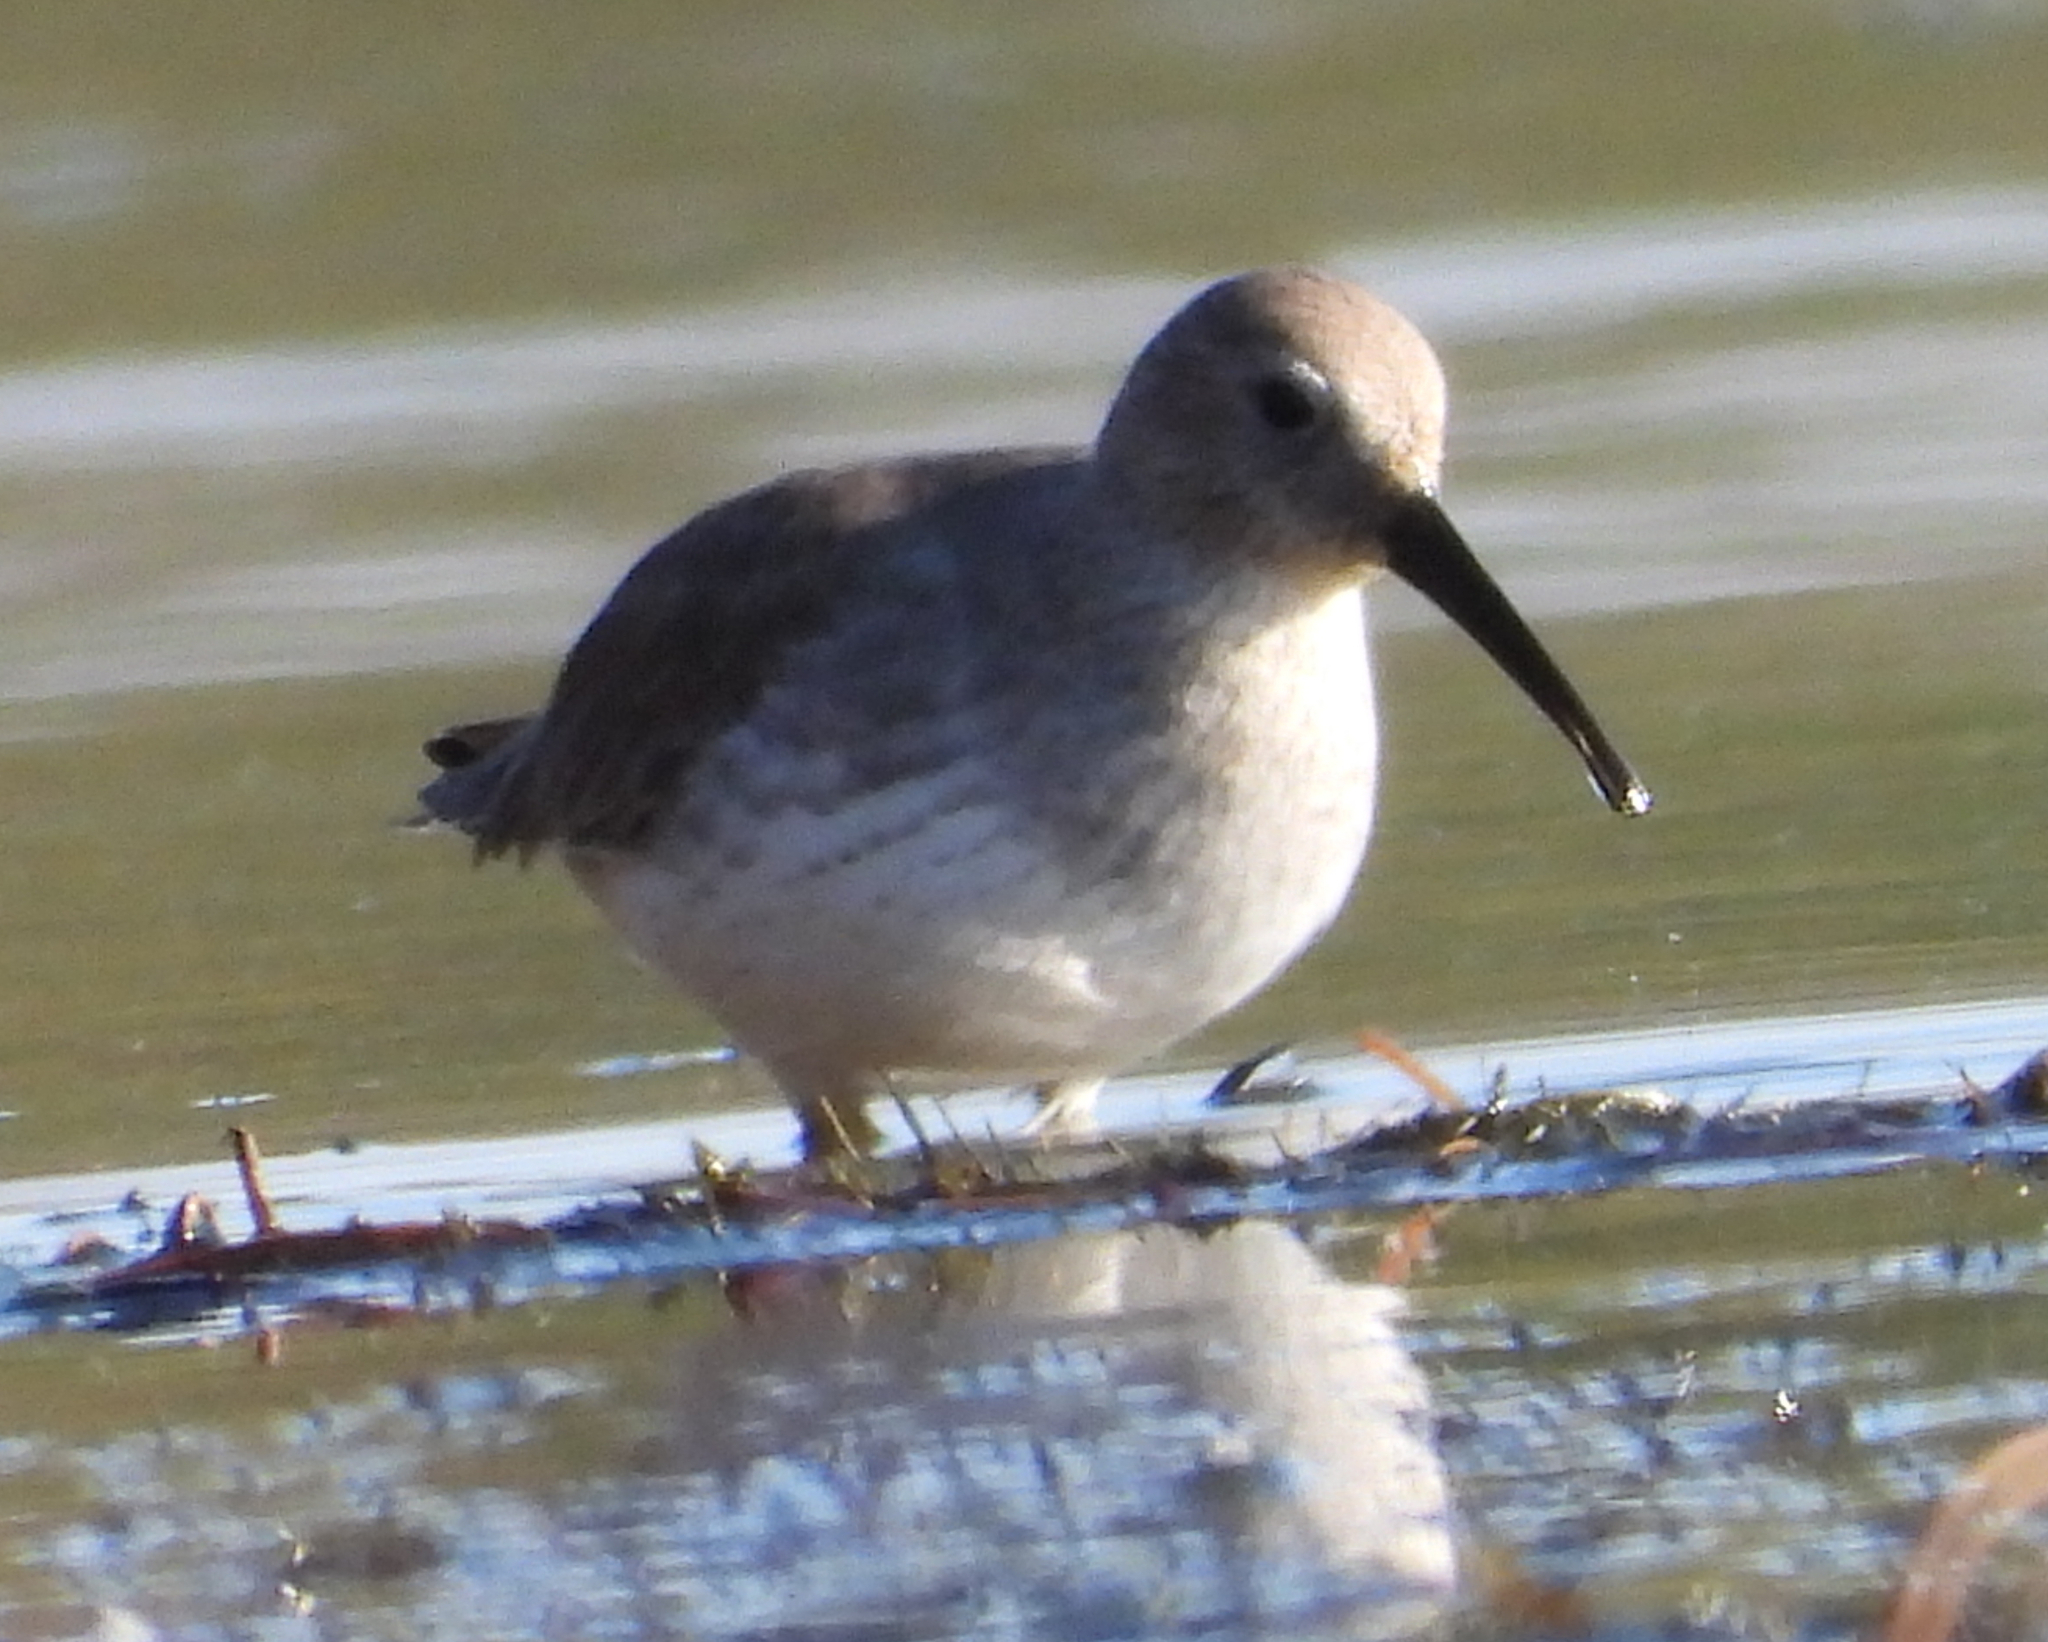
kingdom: Animalia
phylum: Chordata
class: Aves
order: Charadriiformes
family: Scolopacidae
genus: Calidris
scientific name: Calidris alpina
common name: Dunlin
